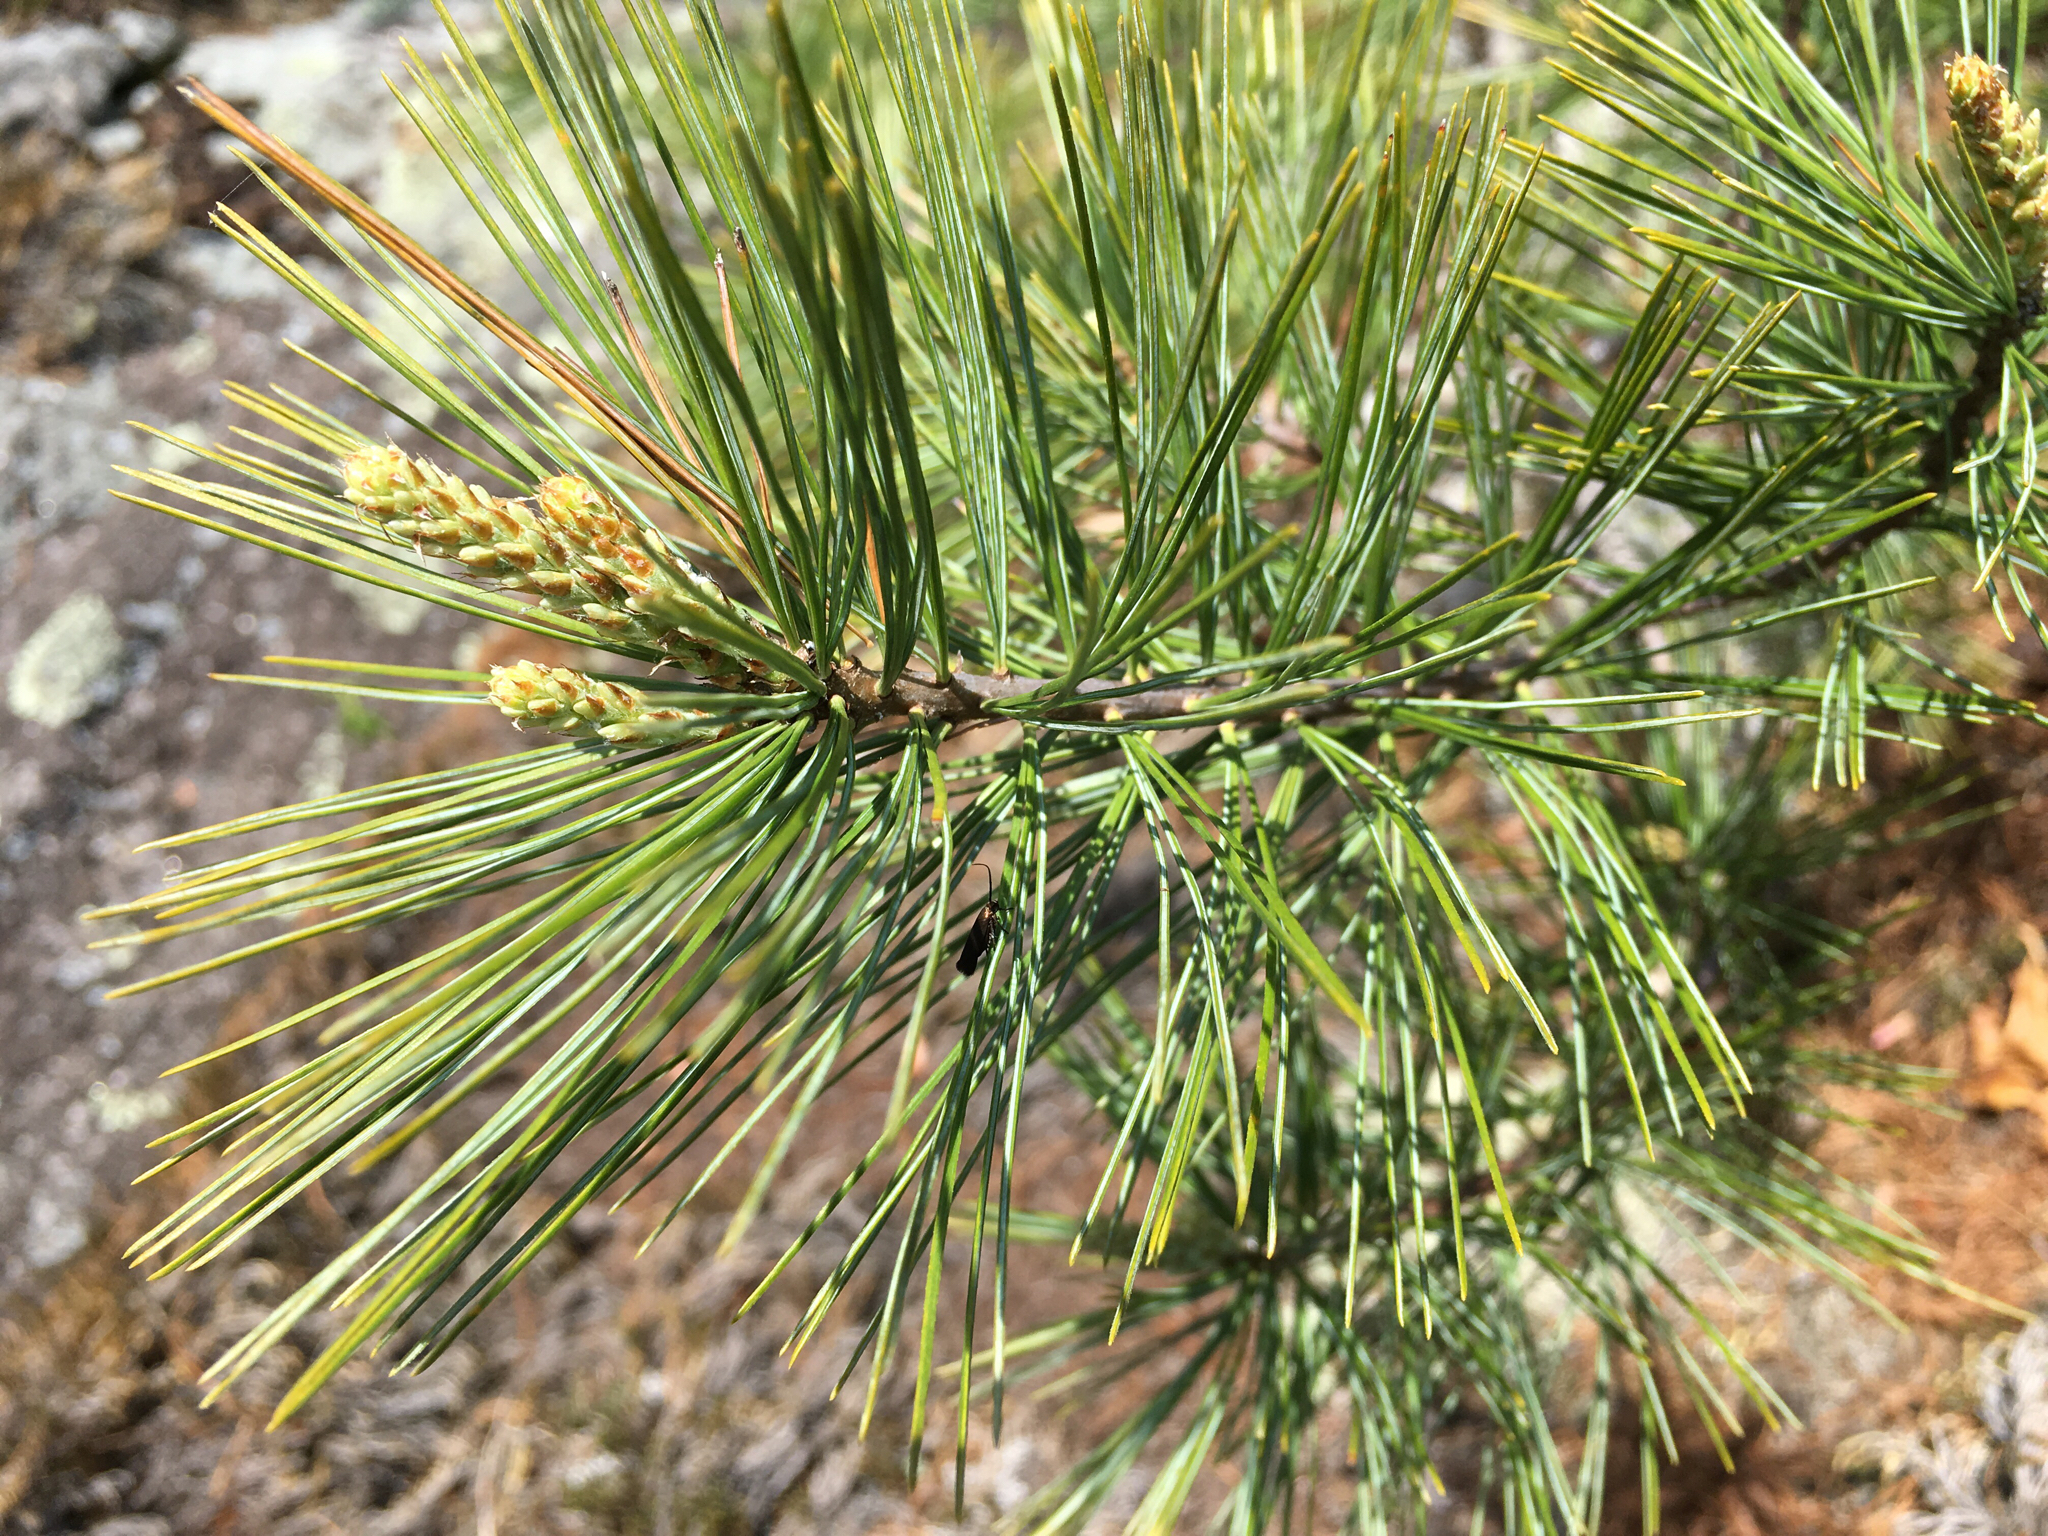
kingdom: Plantae
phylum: Tracheophyta
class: Pinopsida
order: Pinales
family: Pinaceae
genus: Pinus
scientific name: Pinus strobus
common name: Weymouth pine
